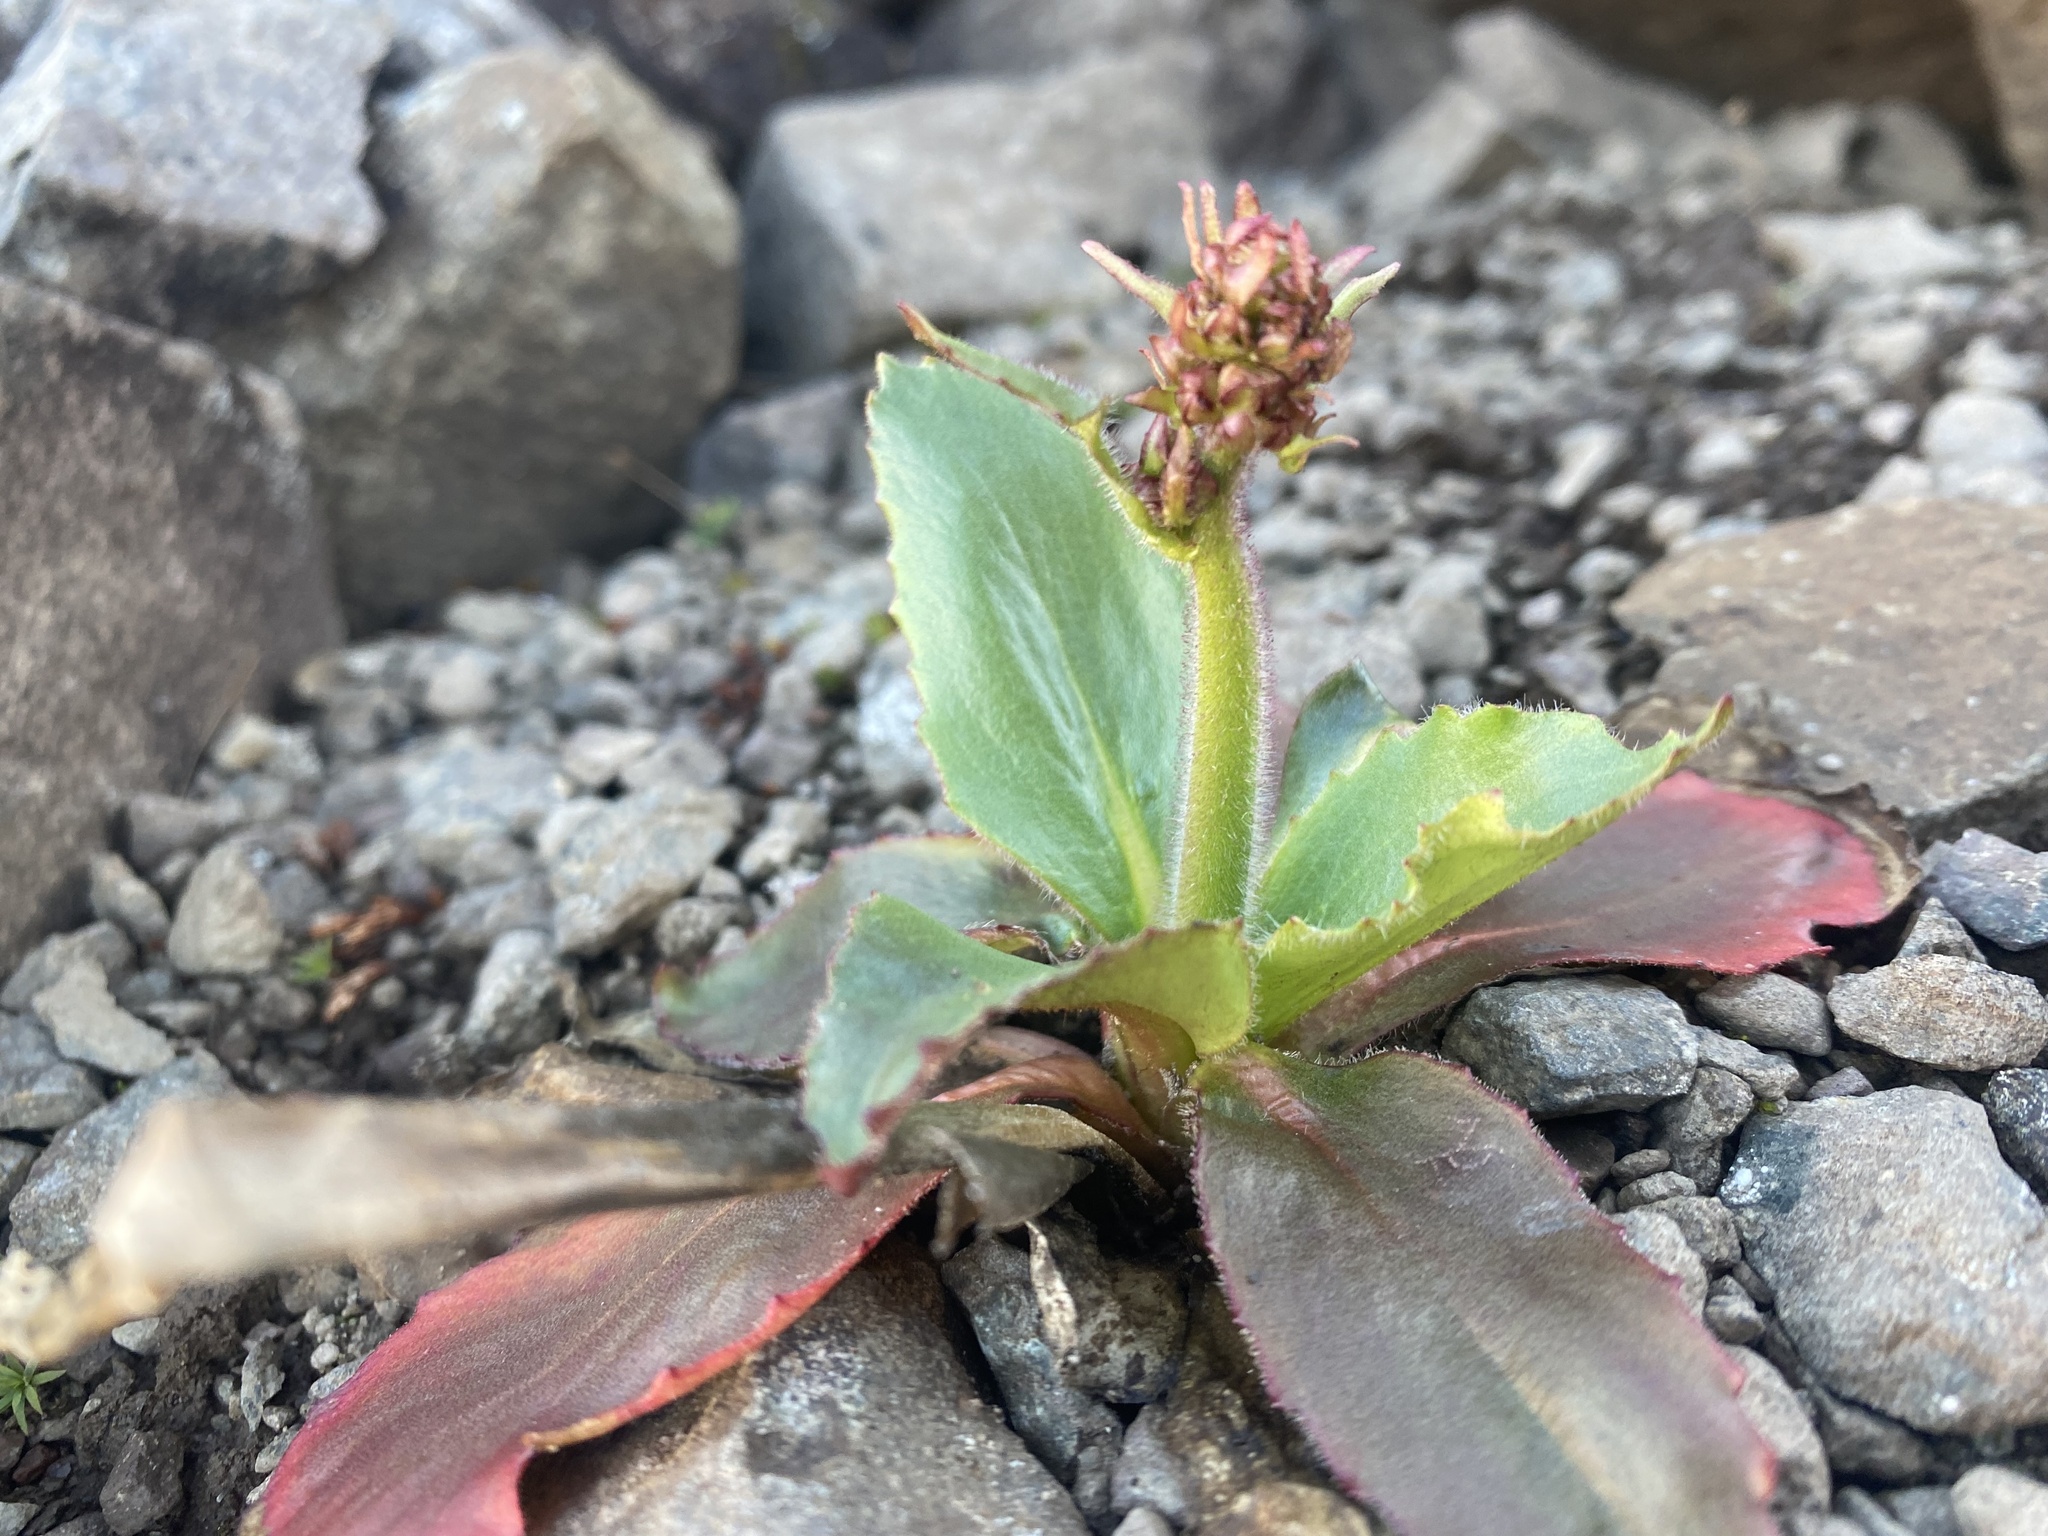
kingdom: Plantae
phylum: Tracheophyta
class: Magnoliopsida
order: Saxifragales
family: Saxifragaceae
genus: Micranthes
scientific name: Micranthes hieraciifolia
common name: Hawkweed-leaved saxifrage
